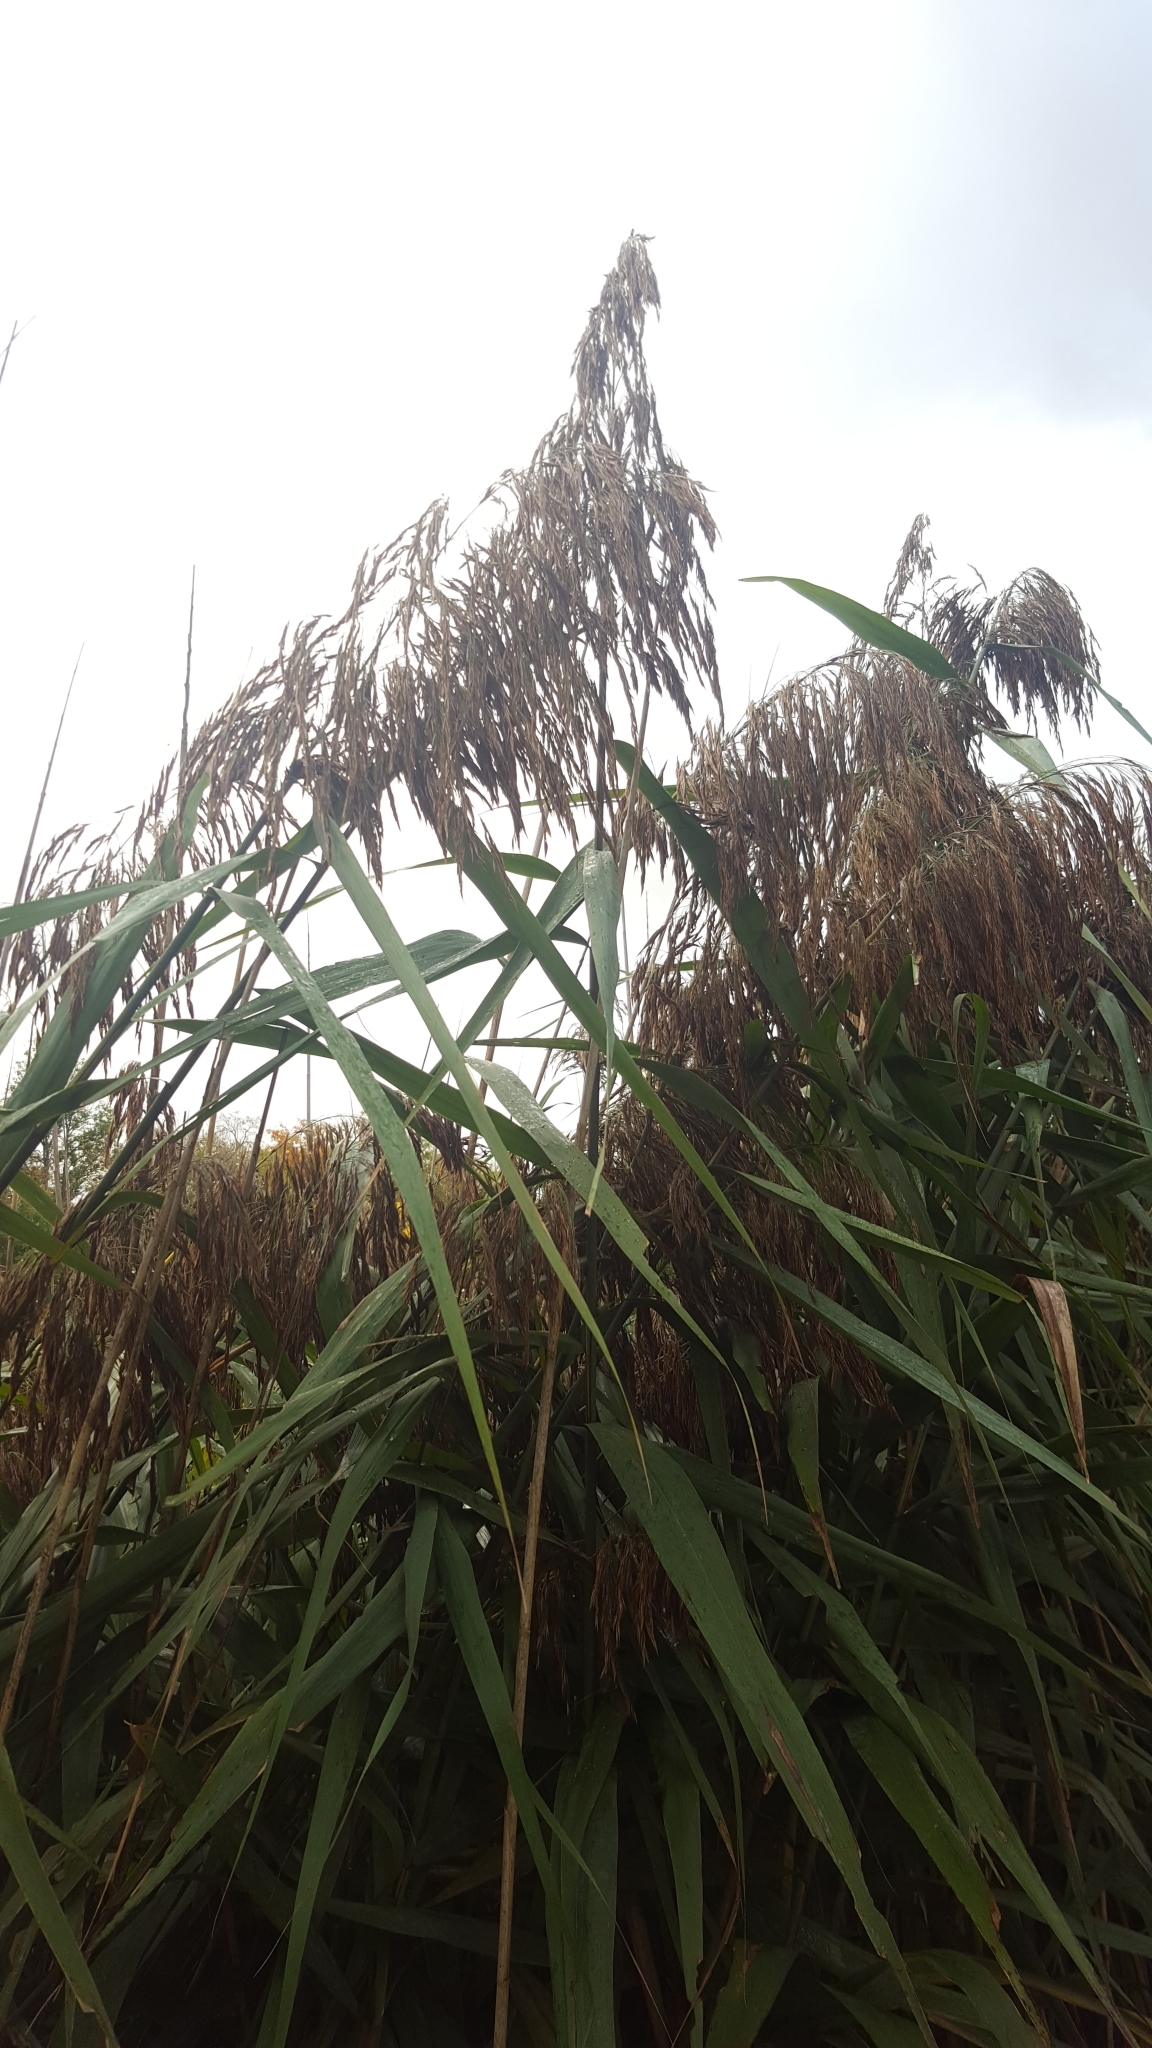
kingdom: Plantae
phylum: Tracheophyta
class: Liliopsida
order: Poales
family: Poaceae
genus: Phragmites
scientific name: Phragmites australis
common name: Common reed
